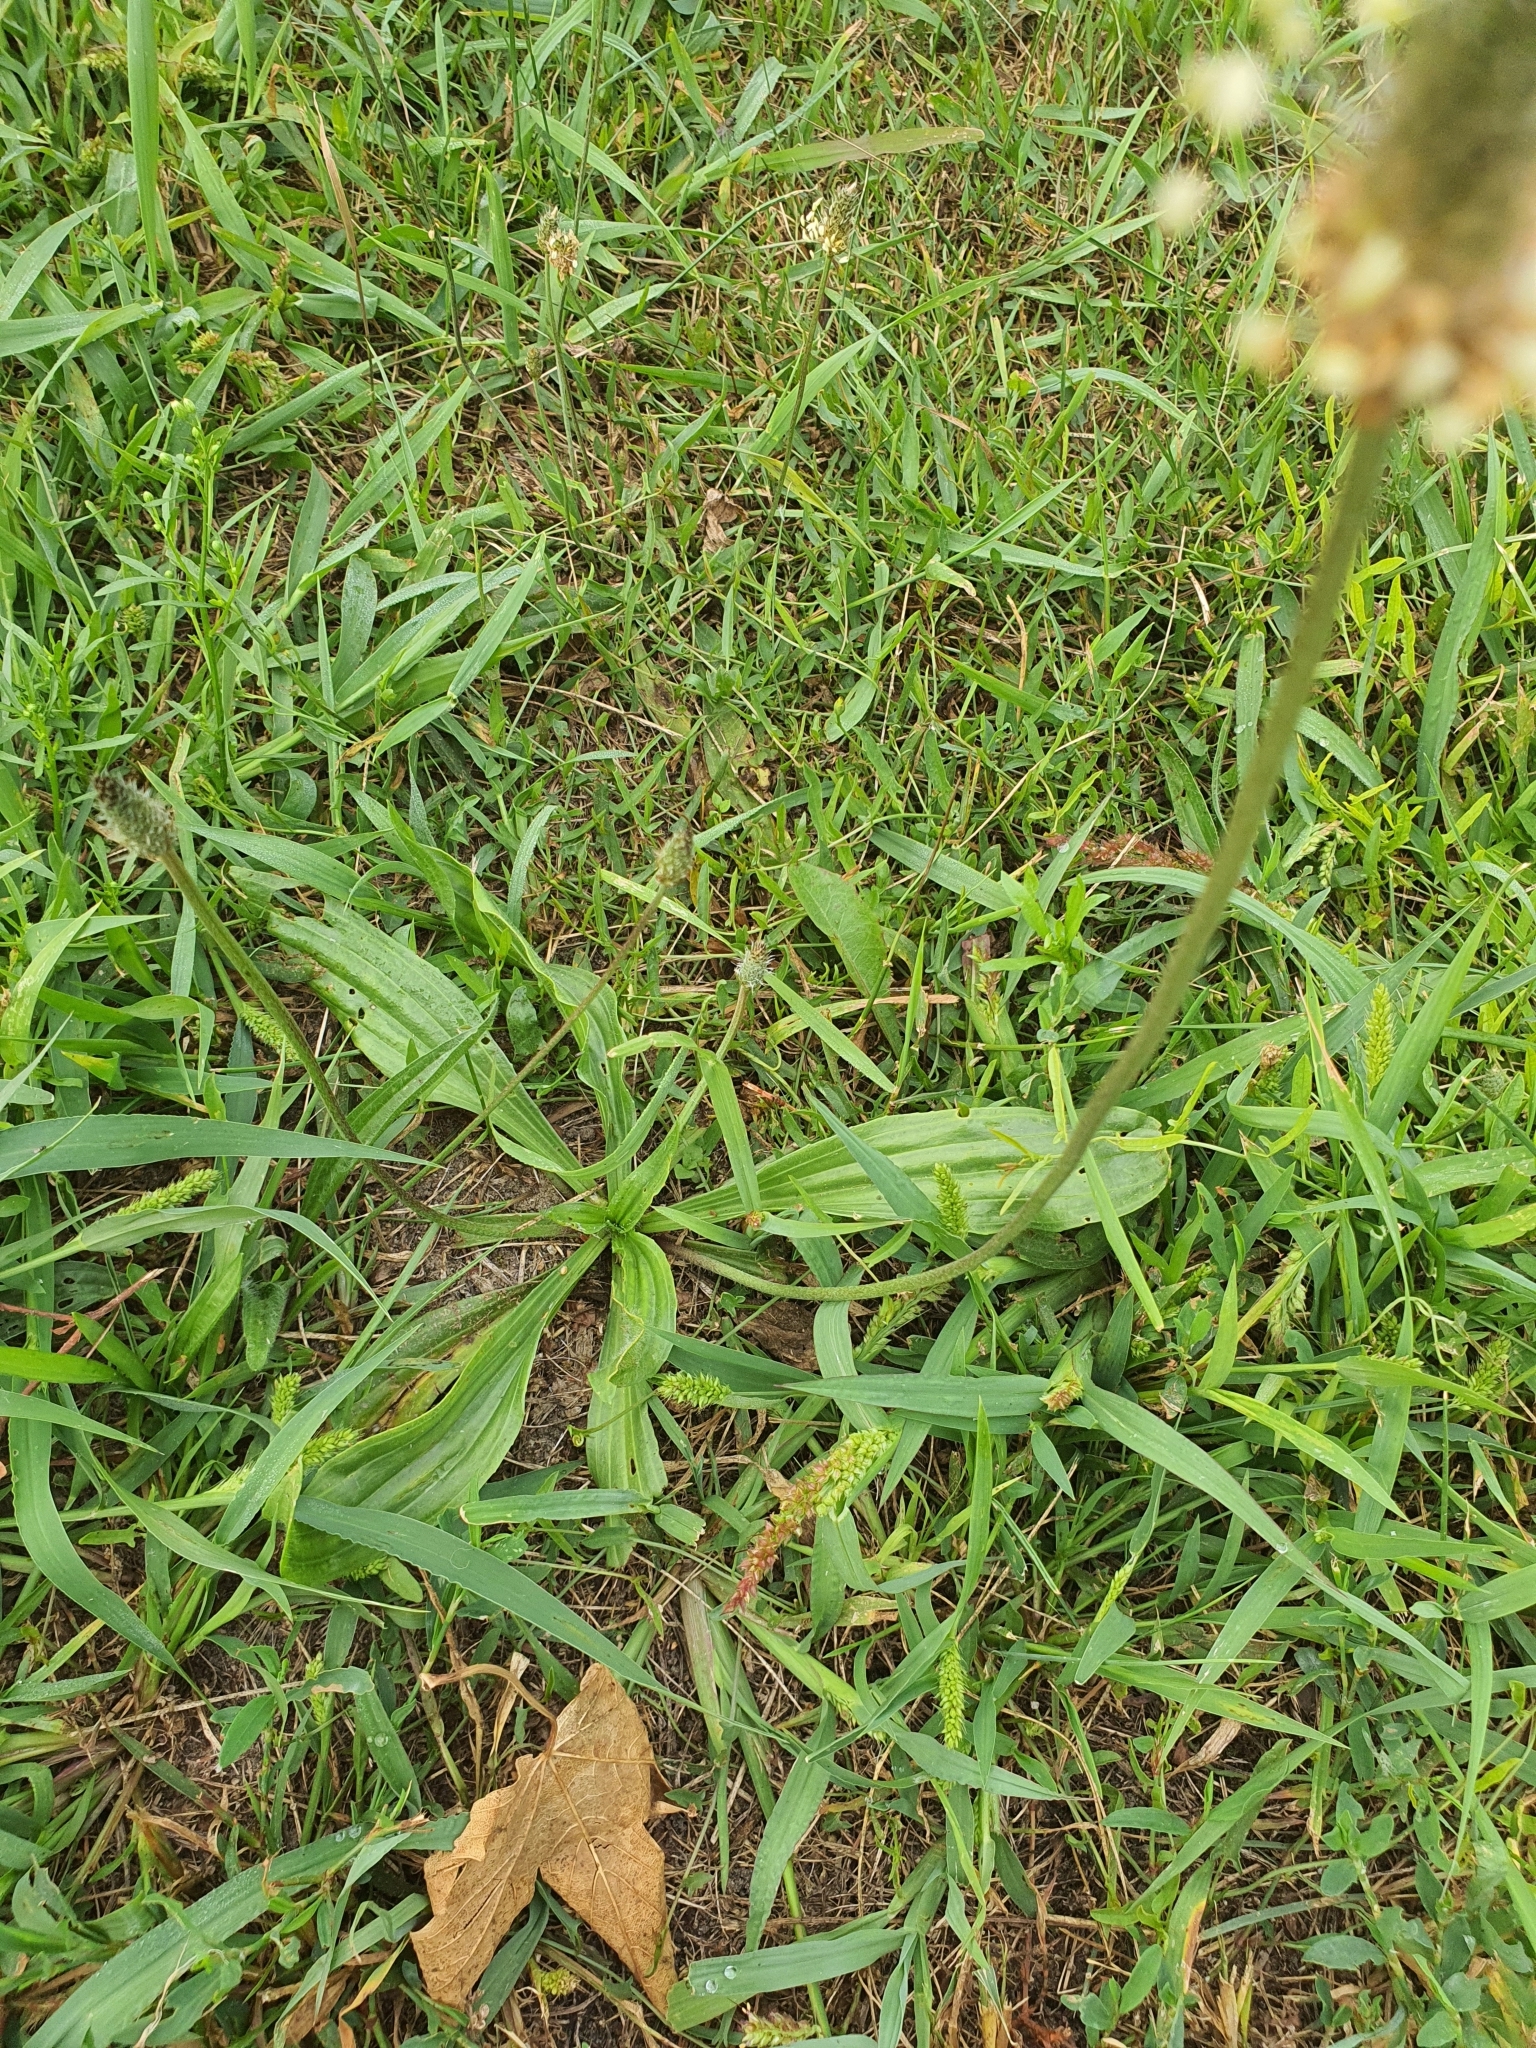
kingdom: Plantae
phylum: Tracheophyta
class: Magnoliopsida
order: Lamiales
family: Plantaginaceae
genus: Plantago
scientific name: Plantago lanceolata
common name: Ribwort plantain
